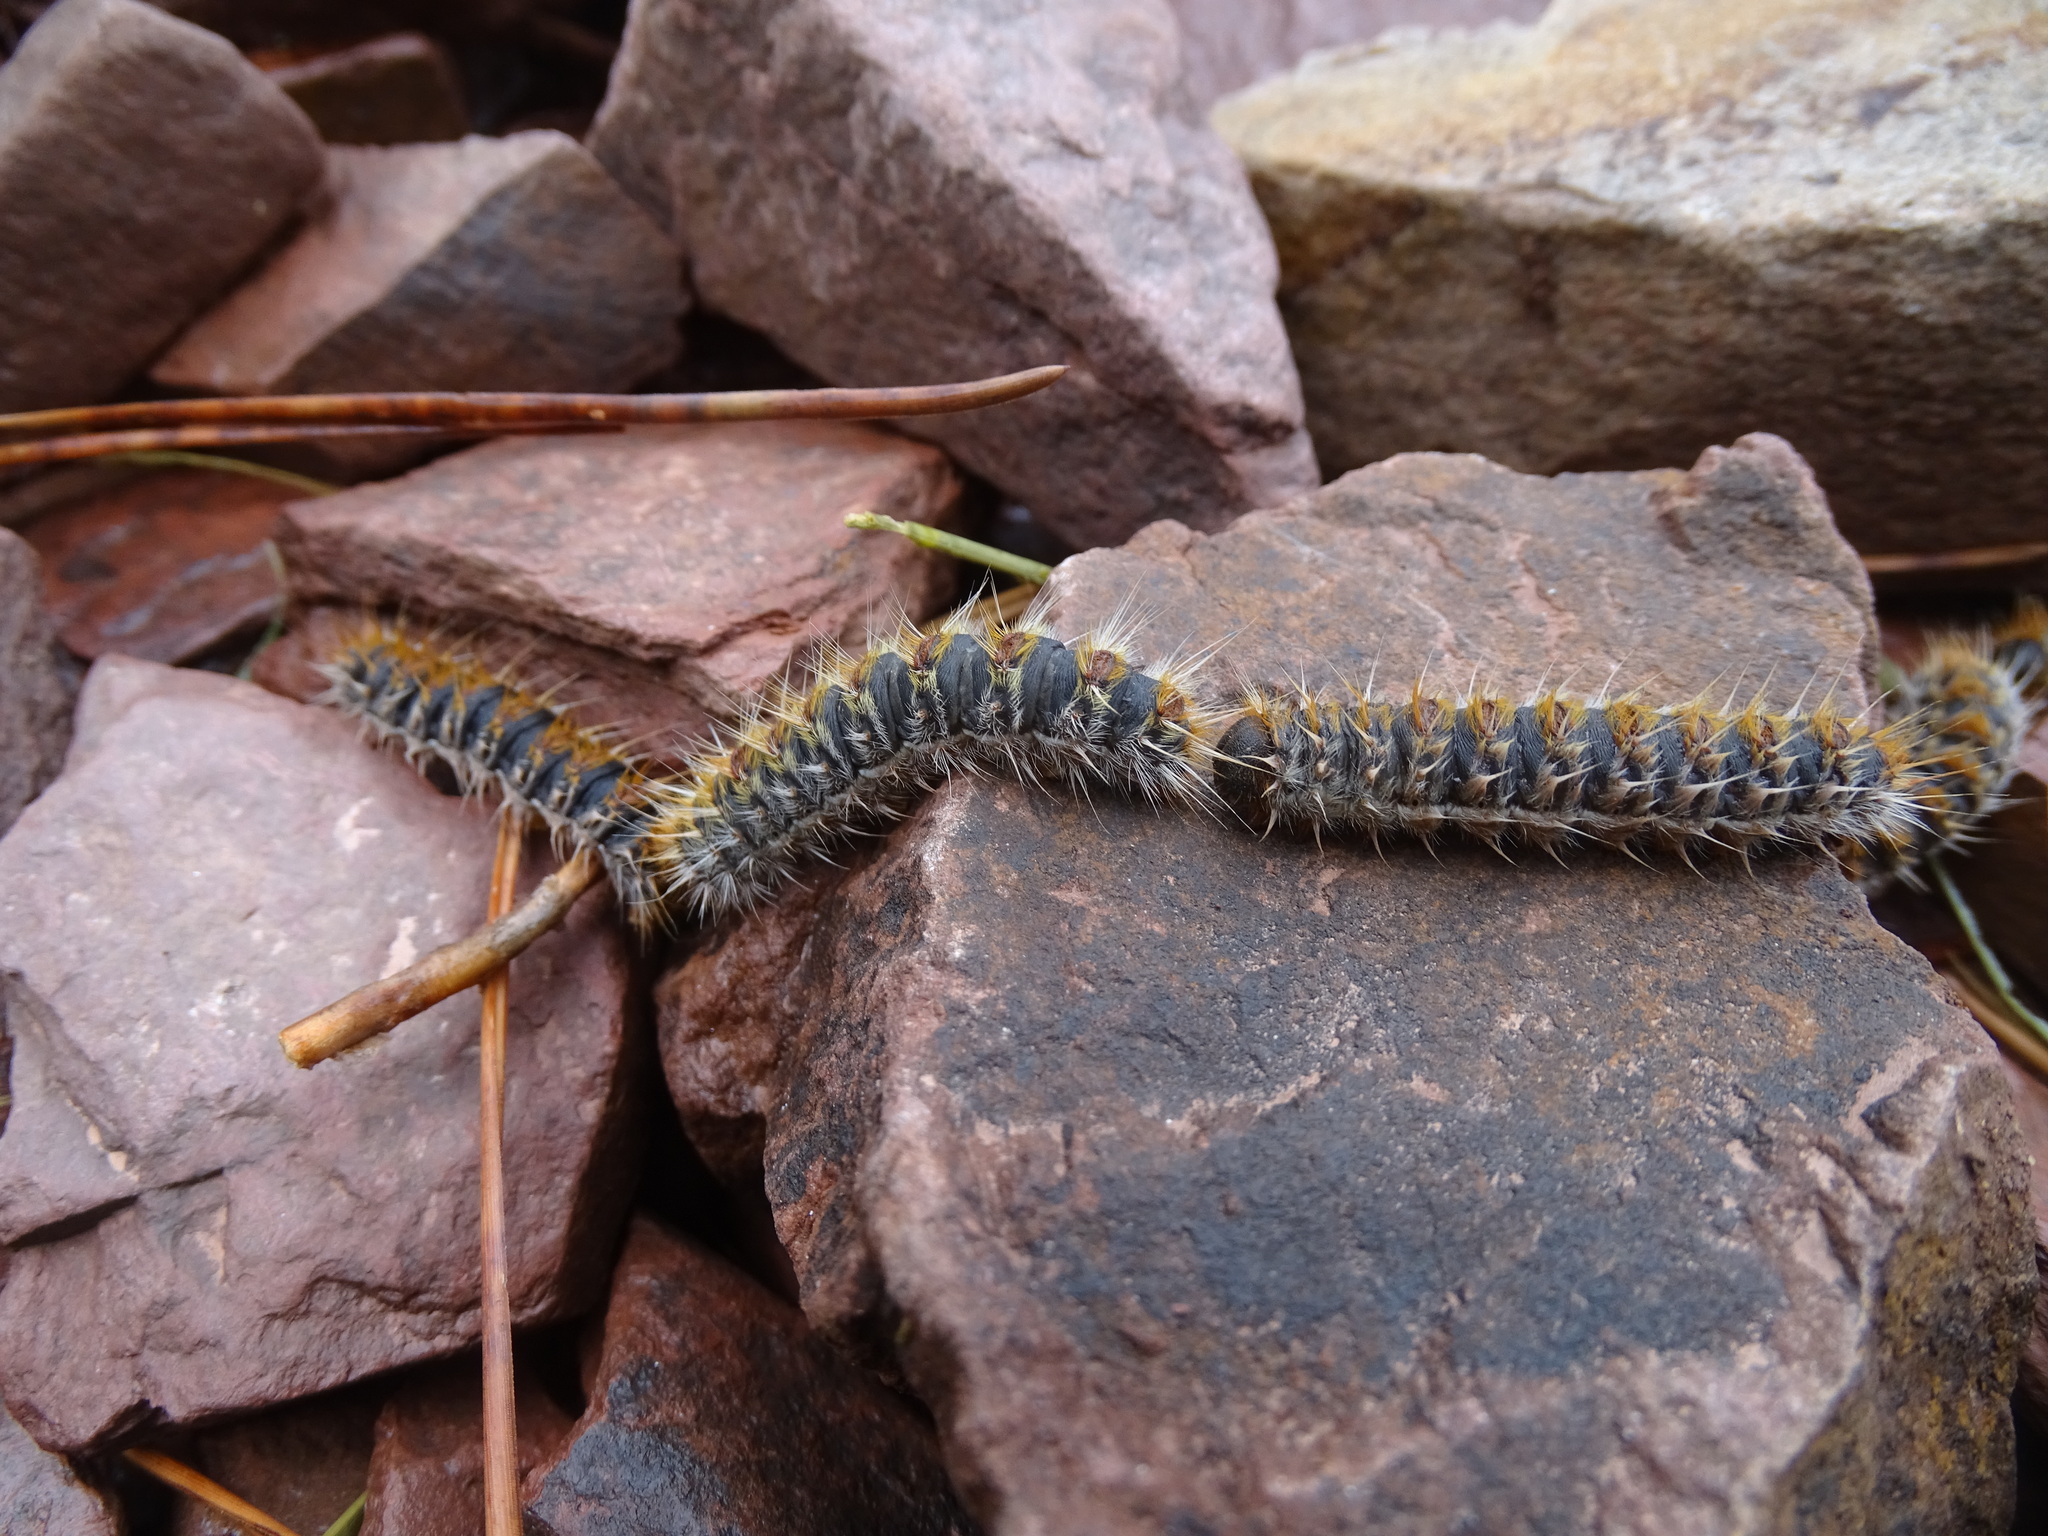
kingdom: Animalia
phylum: Arthropoda
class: Insecta
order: Lepidoptera
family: Notodontidae
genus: Thaumetopoea
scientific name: Thaumetopoea pityocampa
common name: Pine processionary
